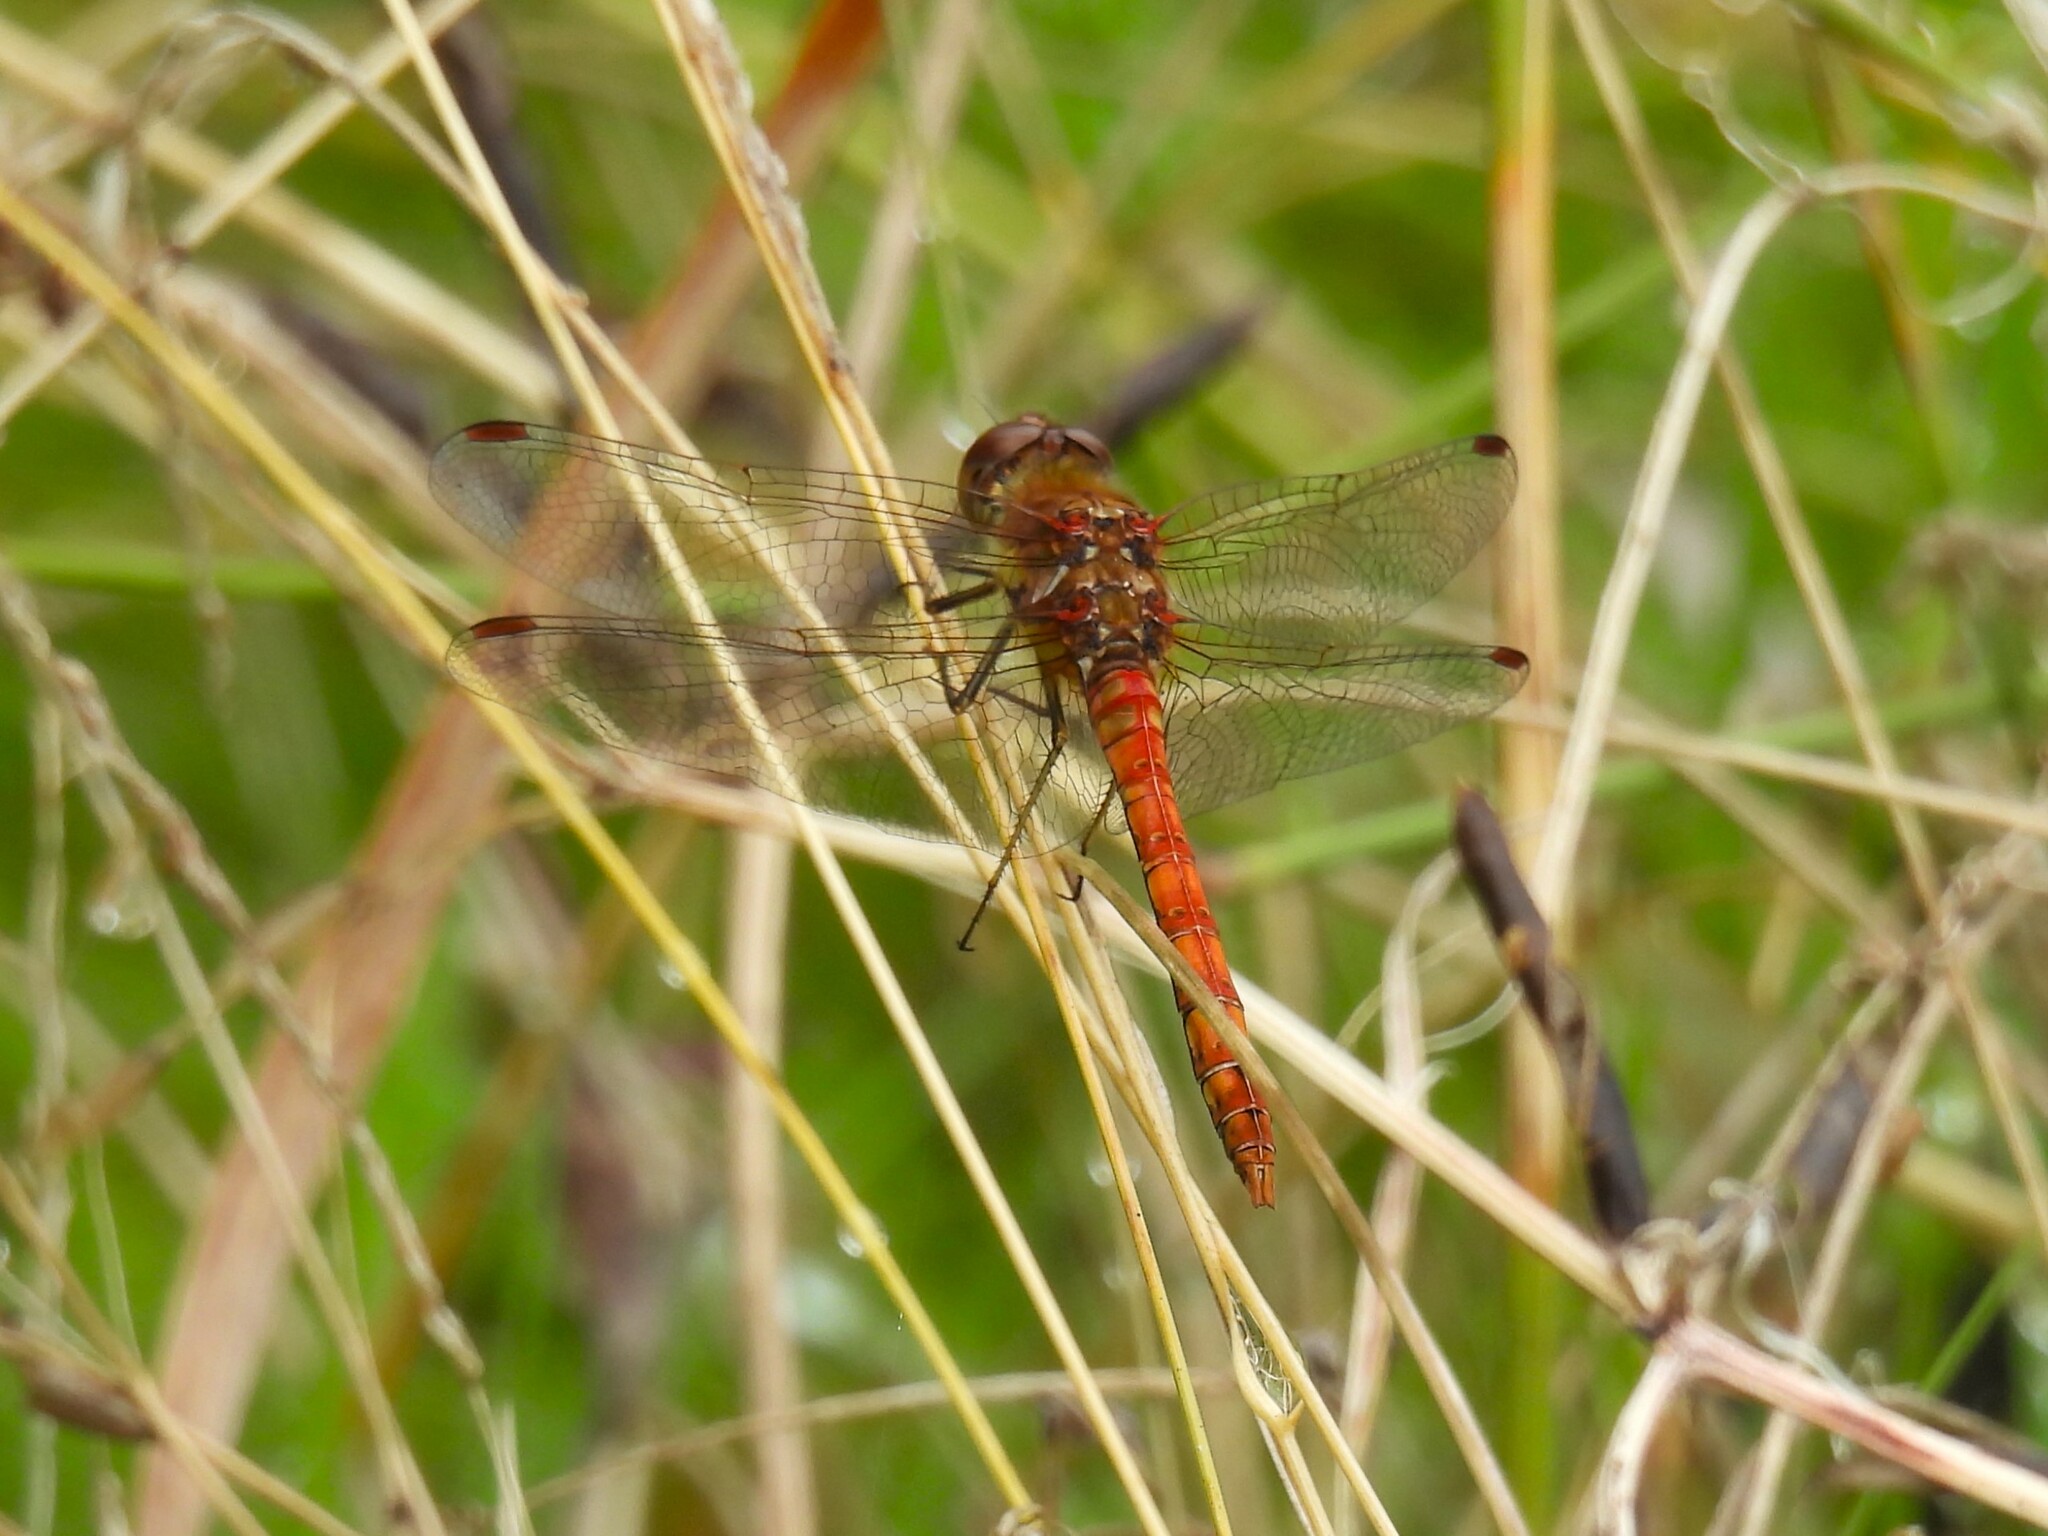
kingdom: Animalia
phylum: Arthropoda
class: Insecta
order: Odonata
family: Libellulidae
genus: Sympetrum
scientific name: Sympetrum striolatum
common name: Common darter
